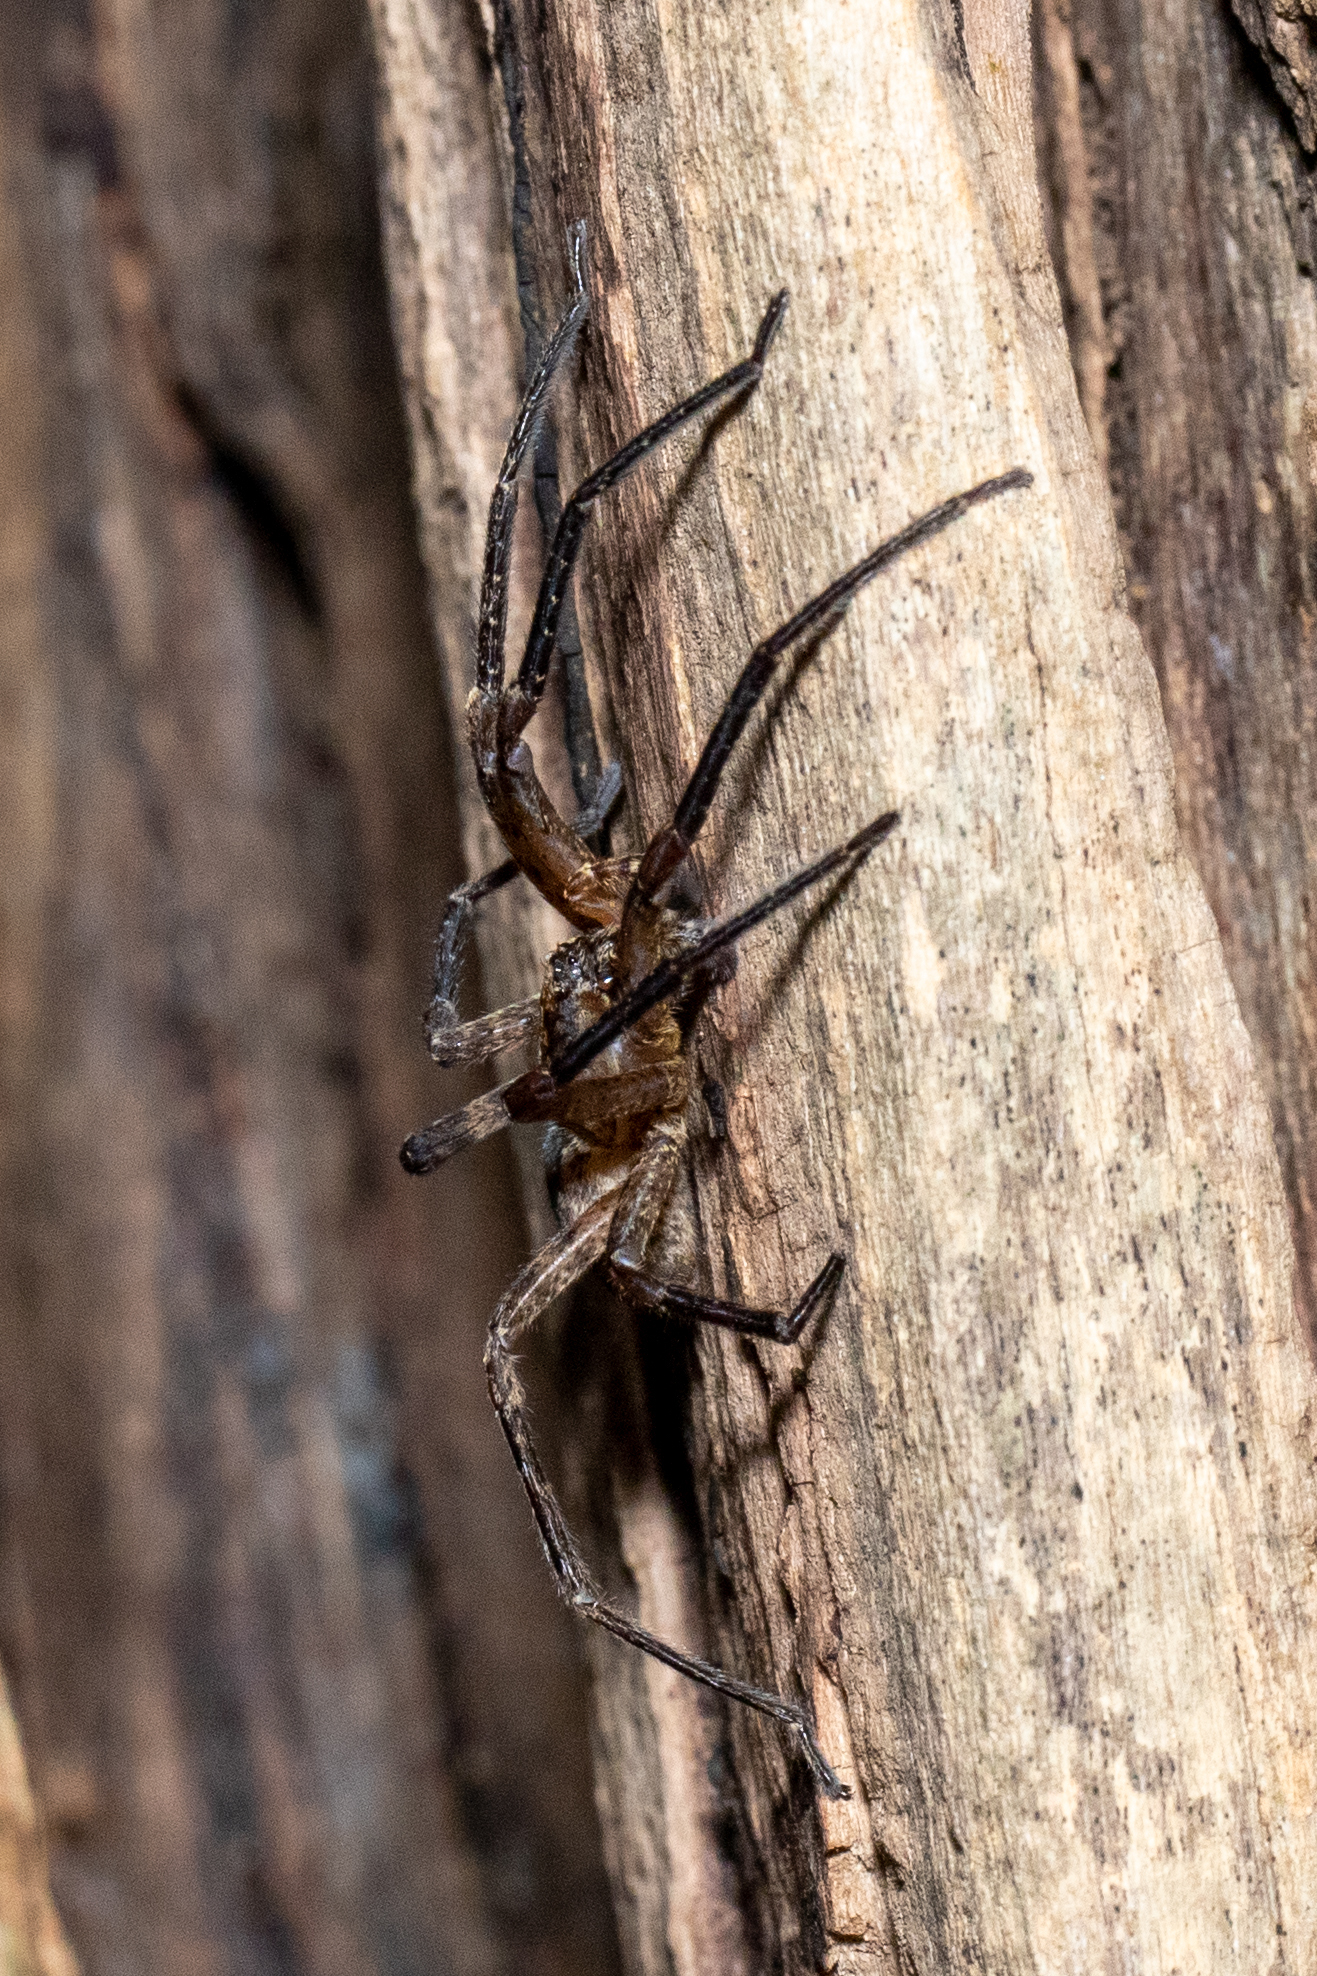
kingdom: Animalia
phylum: Arthropoda
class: Arachnida
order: Araneae
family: Zoropsidae
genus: Zoropsis
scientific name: Zoropsis spinimana
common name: Zoropsid spider
